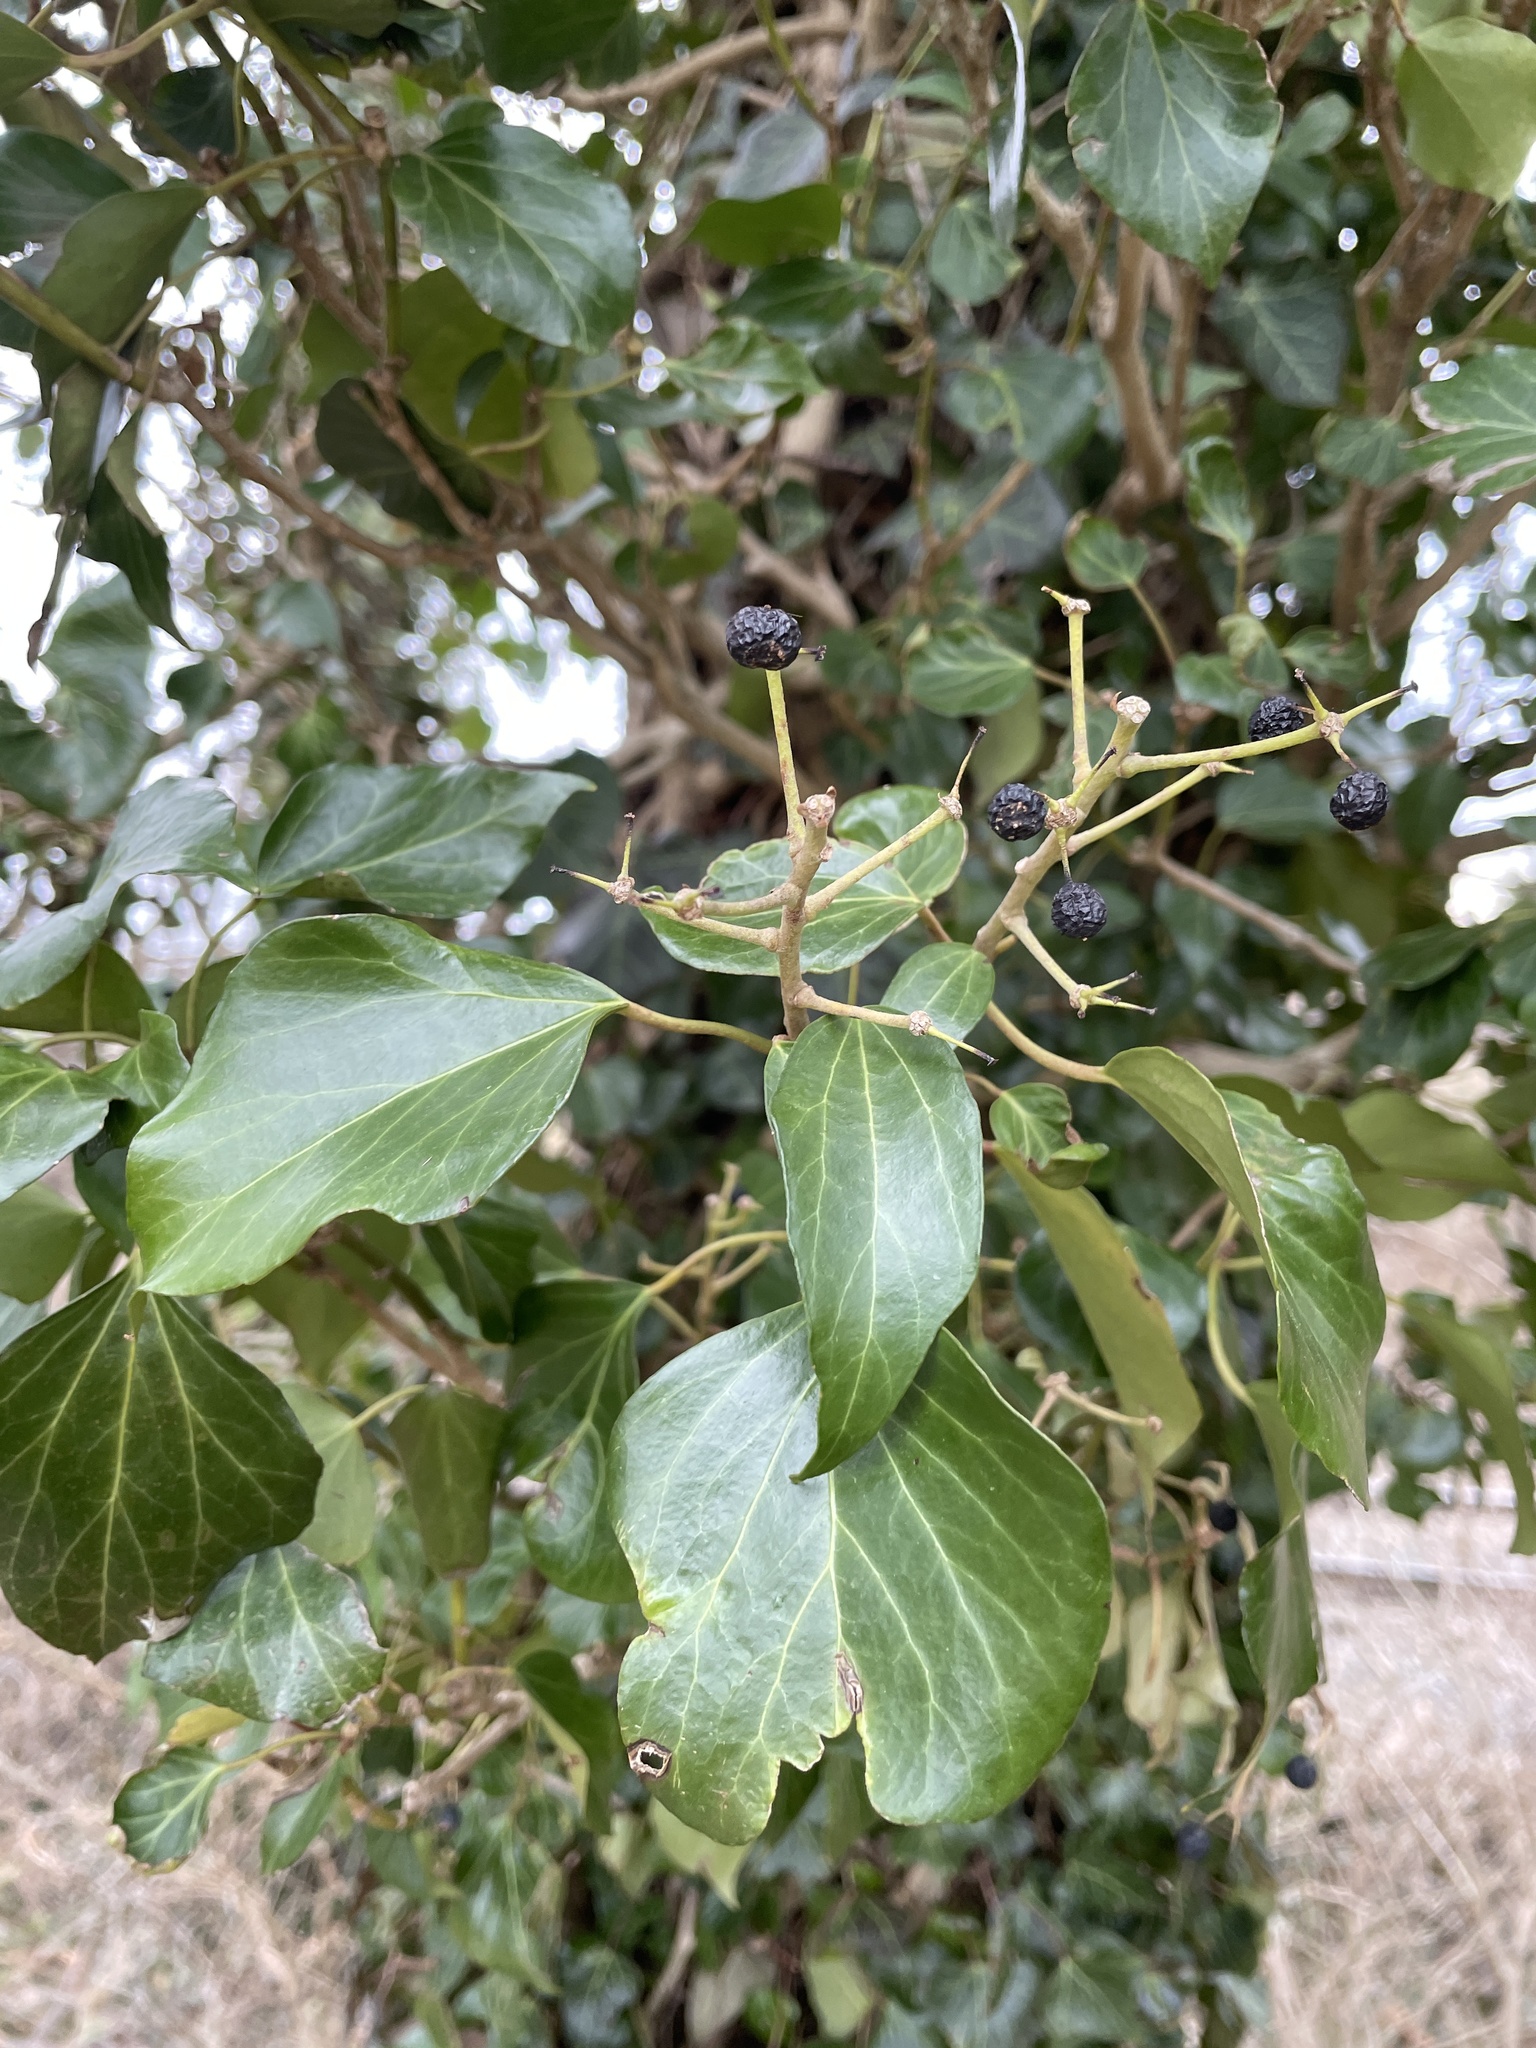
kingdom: Plantae
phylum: Tracheophyta
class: Magnoliopsida
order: Apiales
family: Araliaceae
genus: Hedera
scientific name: Hedera helix
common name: Ivy
